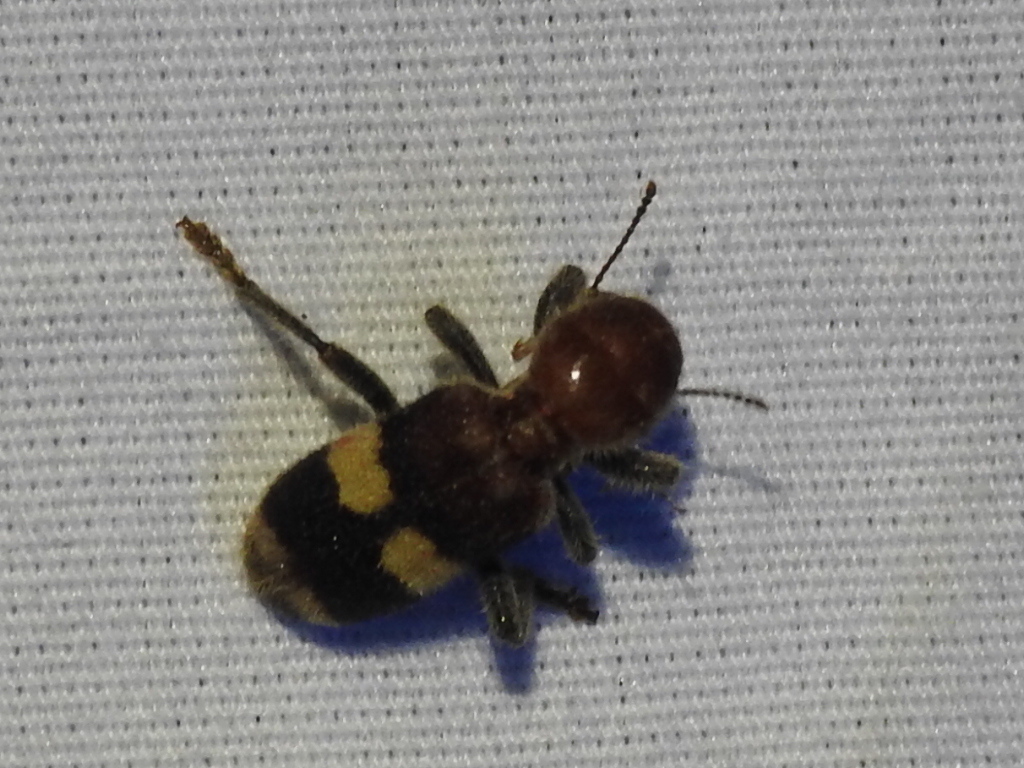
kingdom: Animalia
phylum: Arthropoda
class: Insecta
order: Coleoptera
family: Cleridae
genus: Enoclerus
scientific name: Enoclerus quadrisignatus
